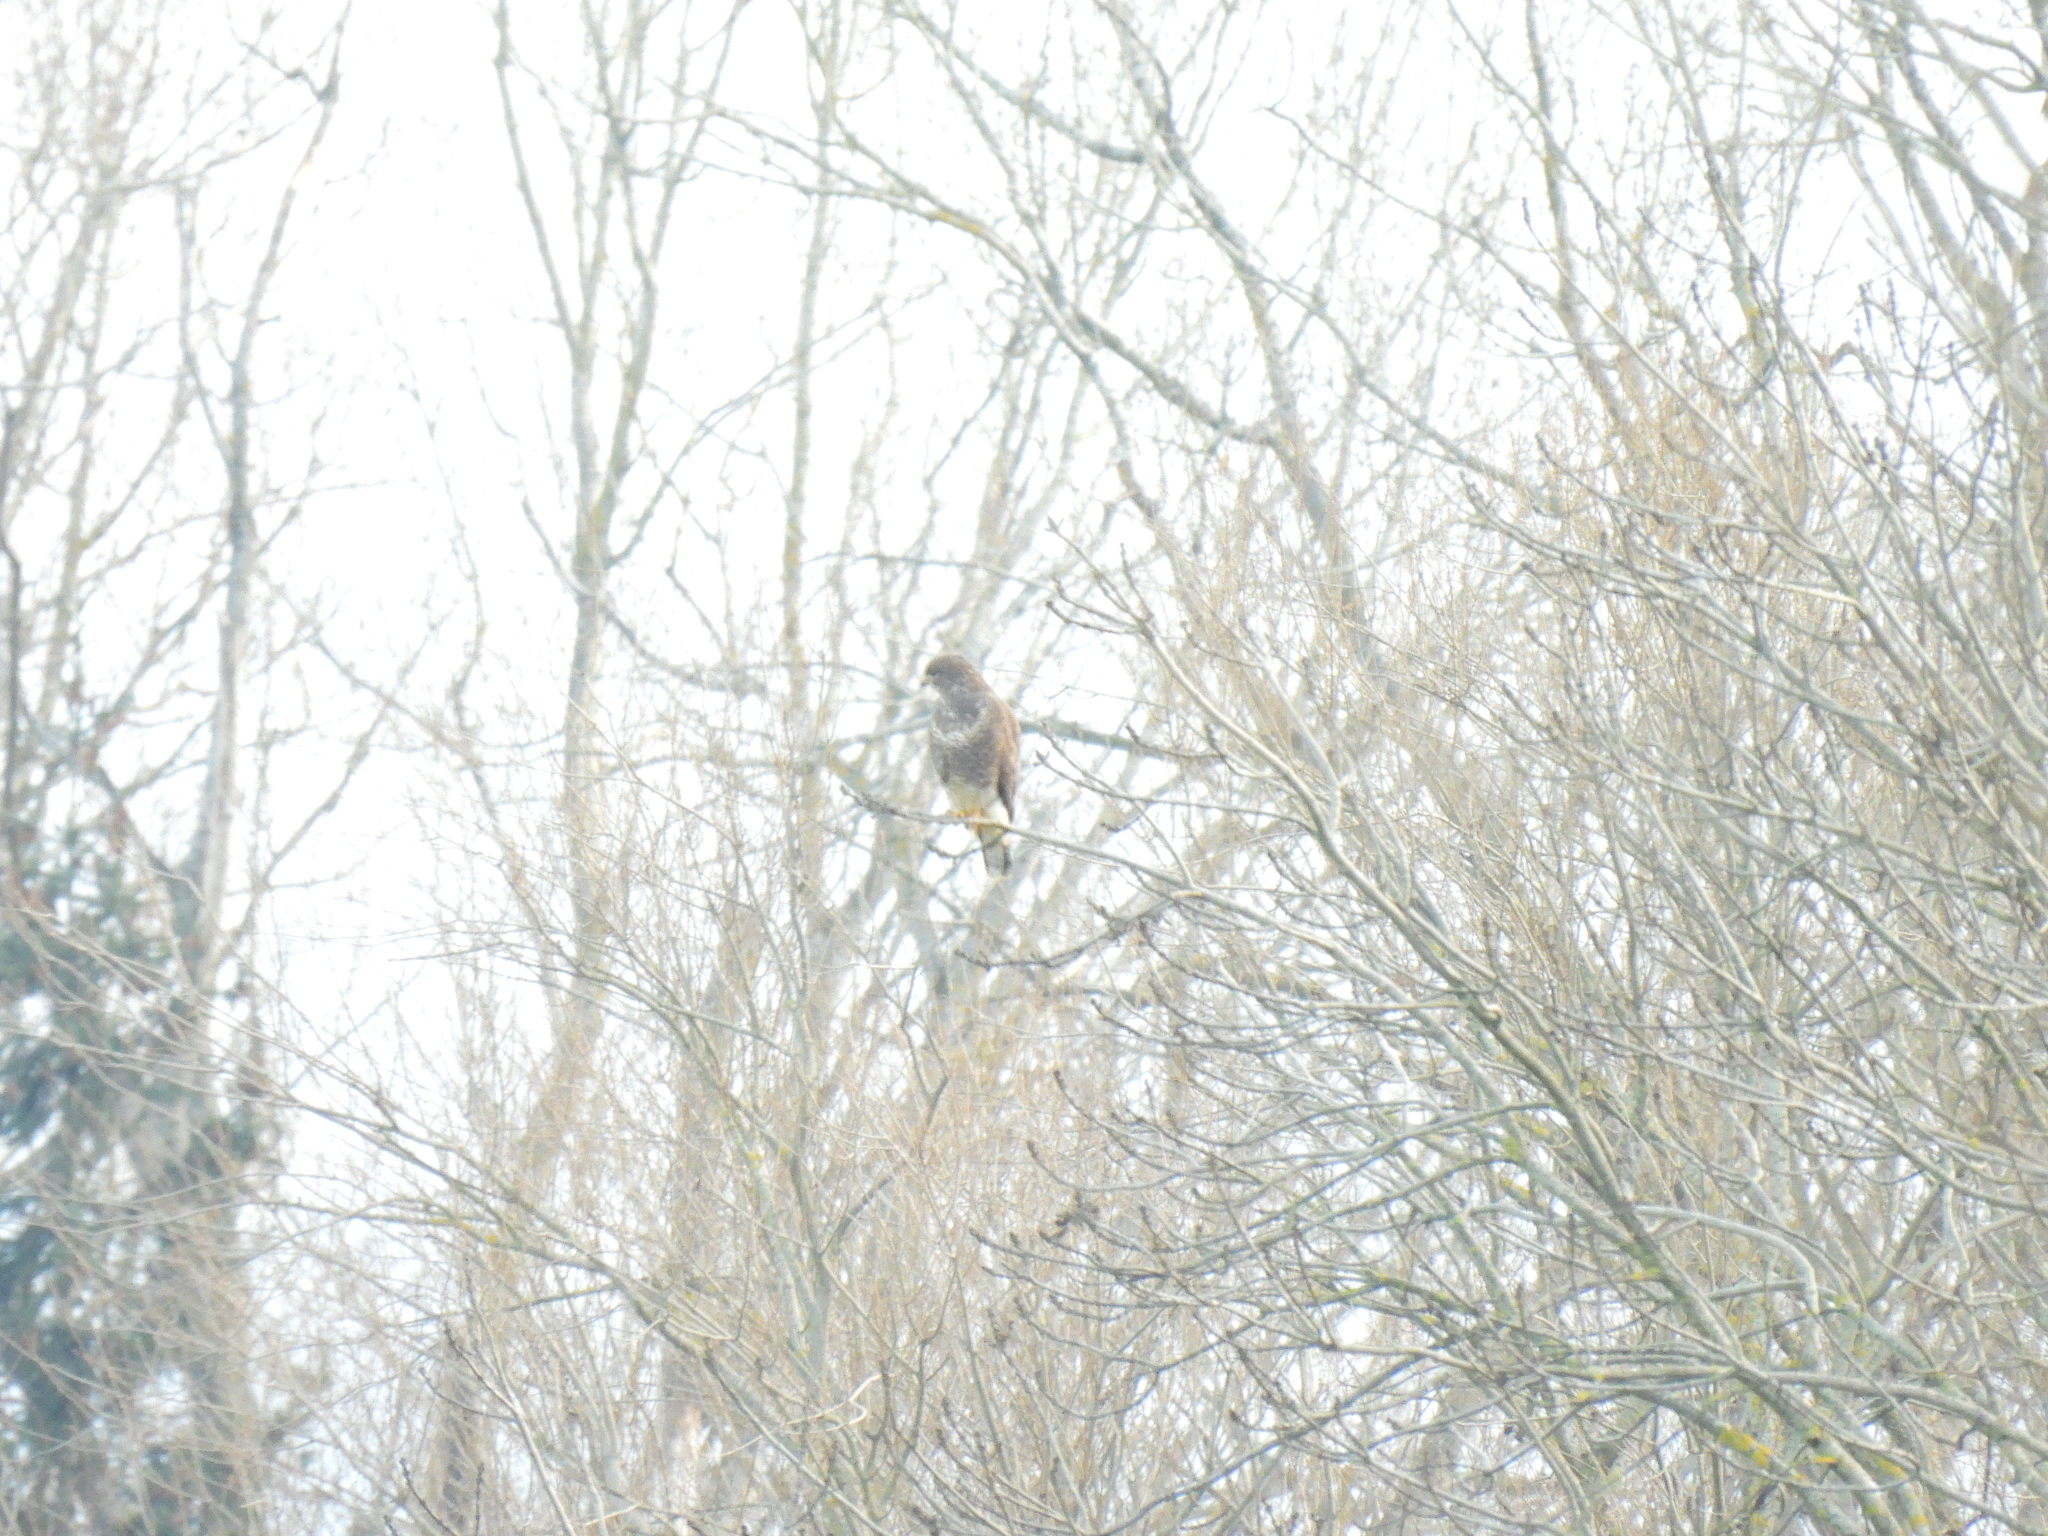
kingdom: Animalia
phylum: Chordata
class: Aves
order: Accipitriformes
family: Accipitridae
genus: Buteo
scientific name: Buteo buteo
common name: Common buzzard
